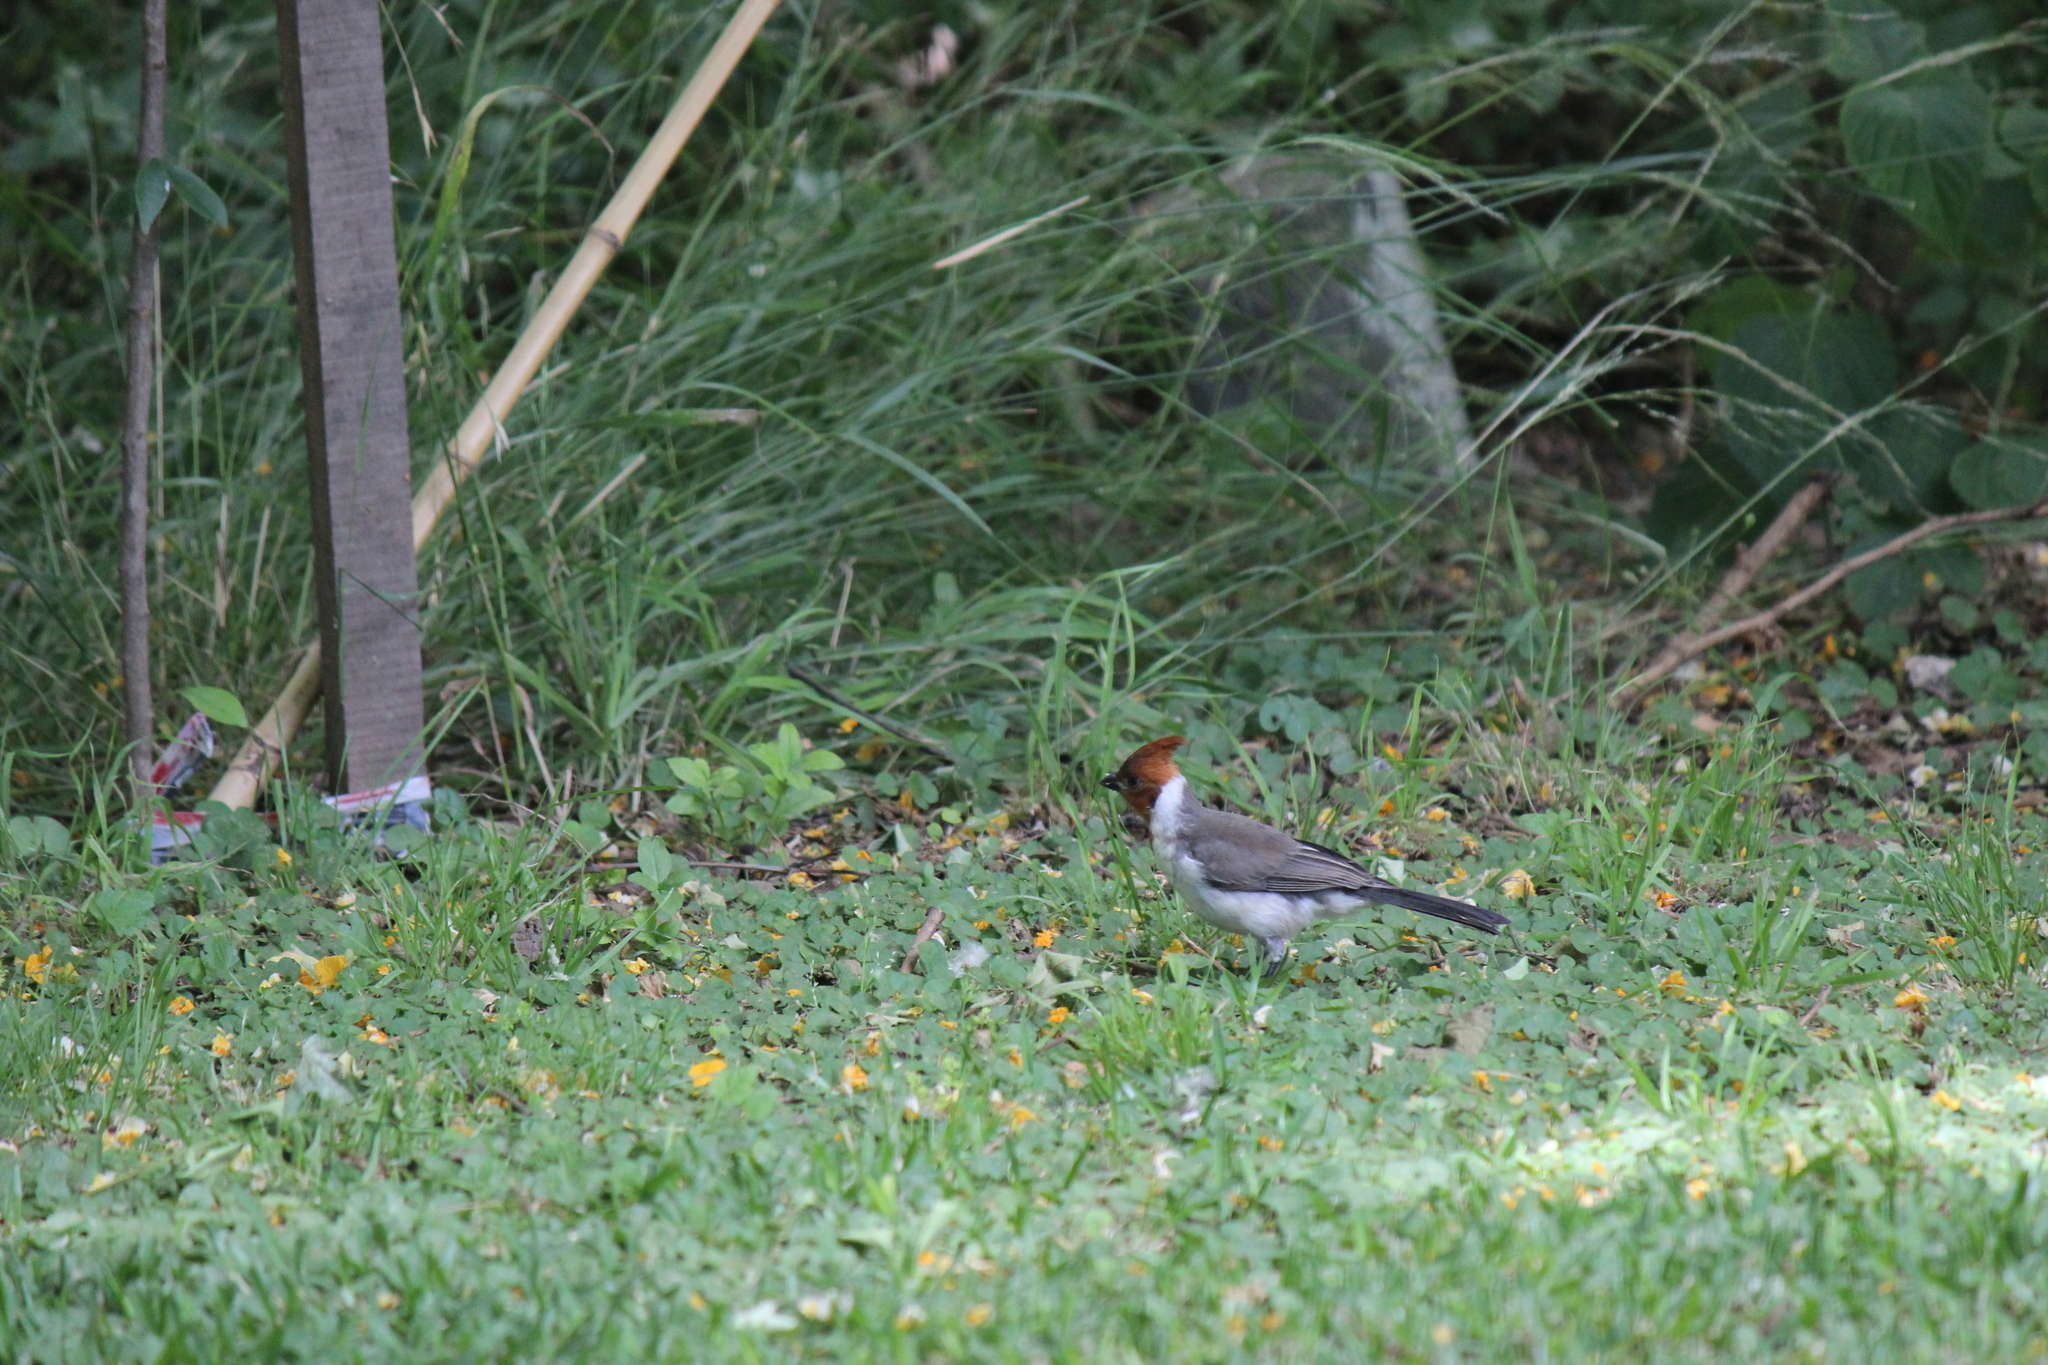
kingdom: Animalia
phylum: Chordata
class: Aves
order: Passeriformes
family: Thraupidae
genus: Paroaria
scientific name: Paroaria coronata
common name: Red-crested cardinal
